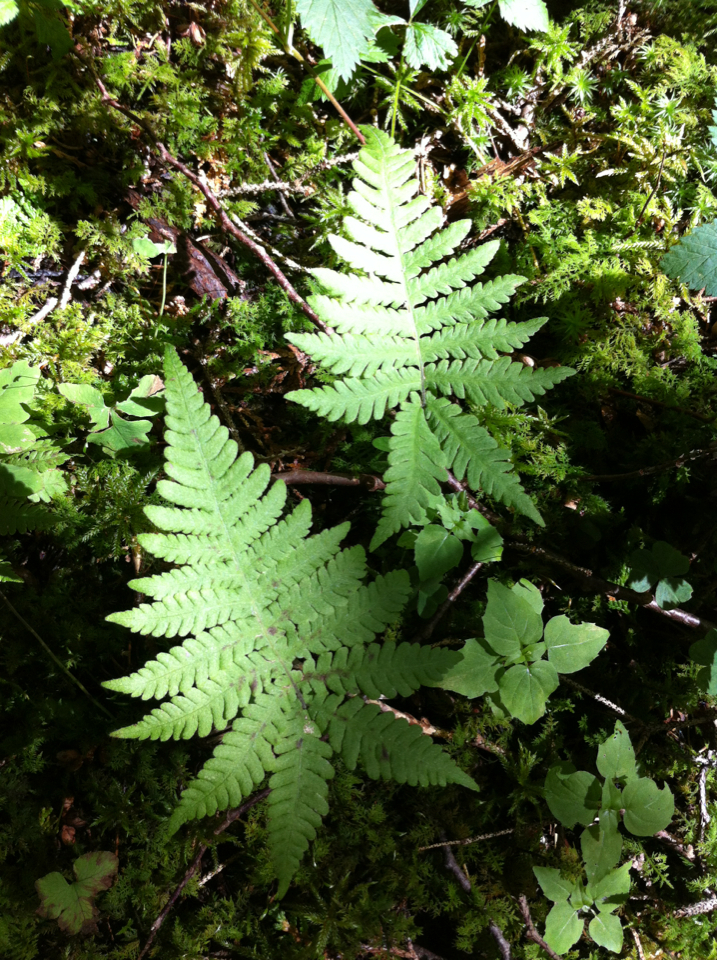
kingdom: Plantae
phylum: Tracheophyta
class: Polypodiopsida
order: Polypodiales
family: Thelypteridaceae
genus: Phegopteris
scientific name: Phegopteris connectilis
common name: Beech fern
